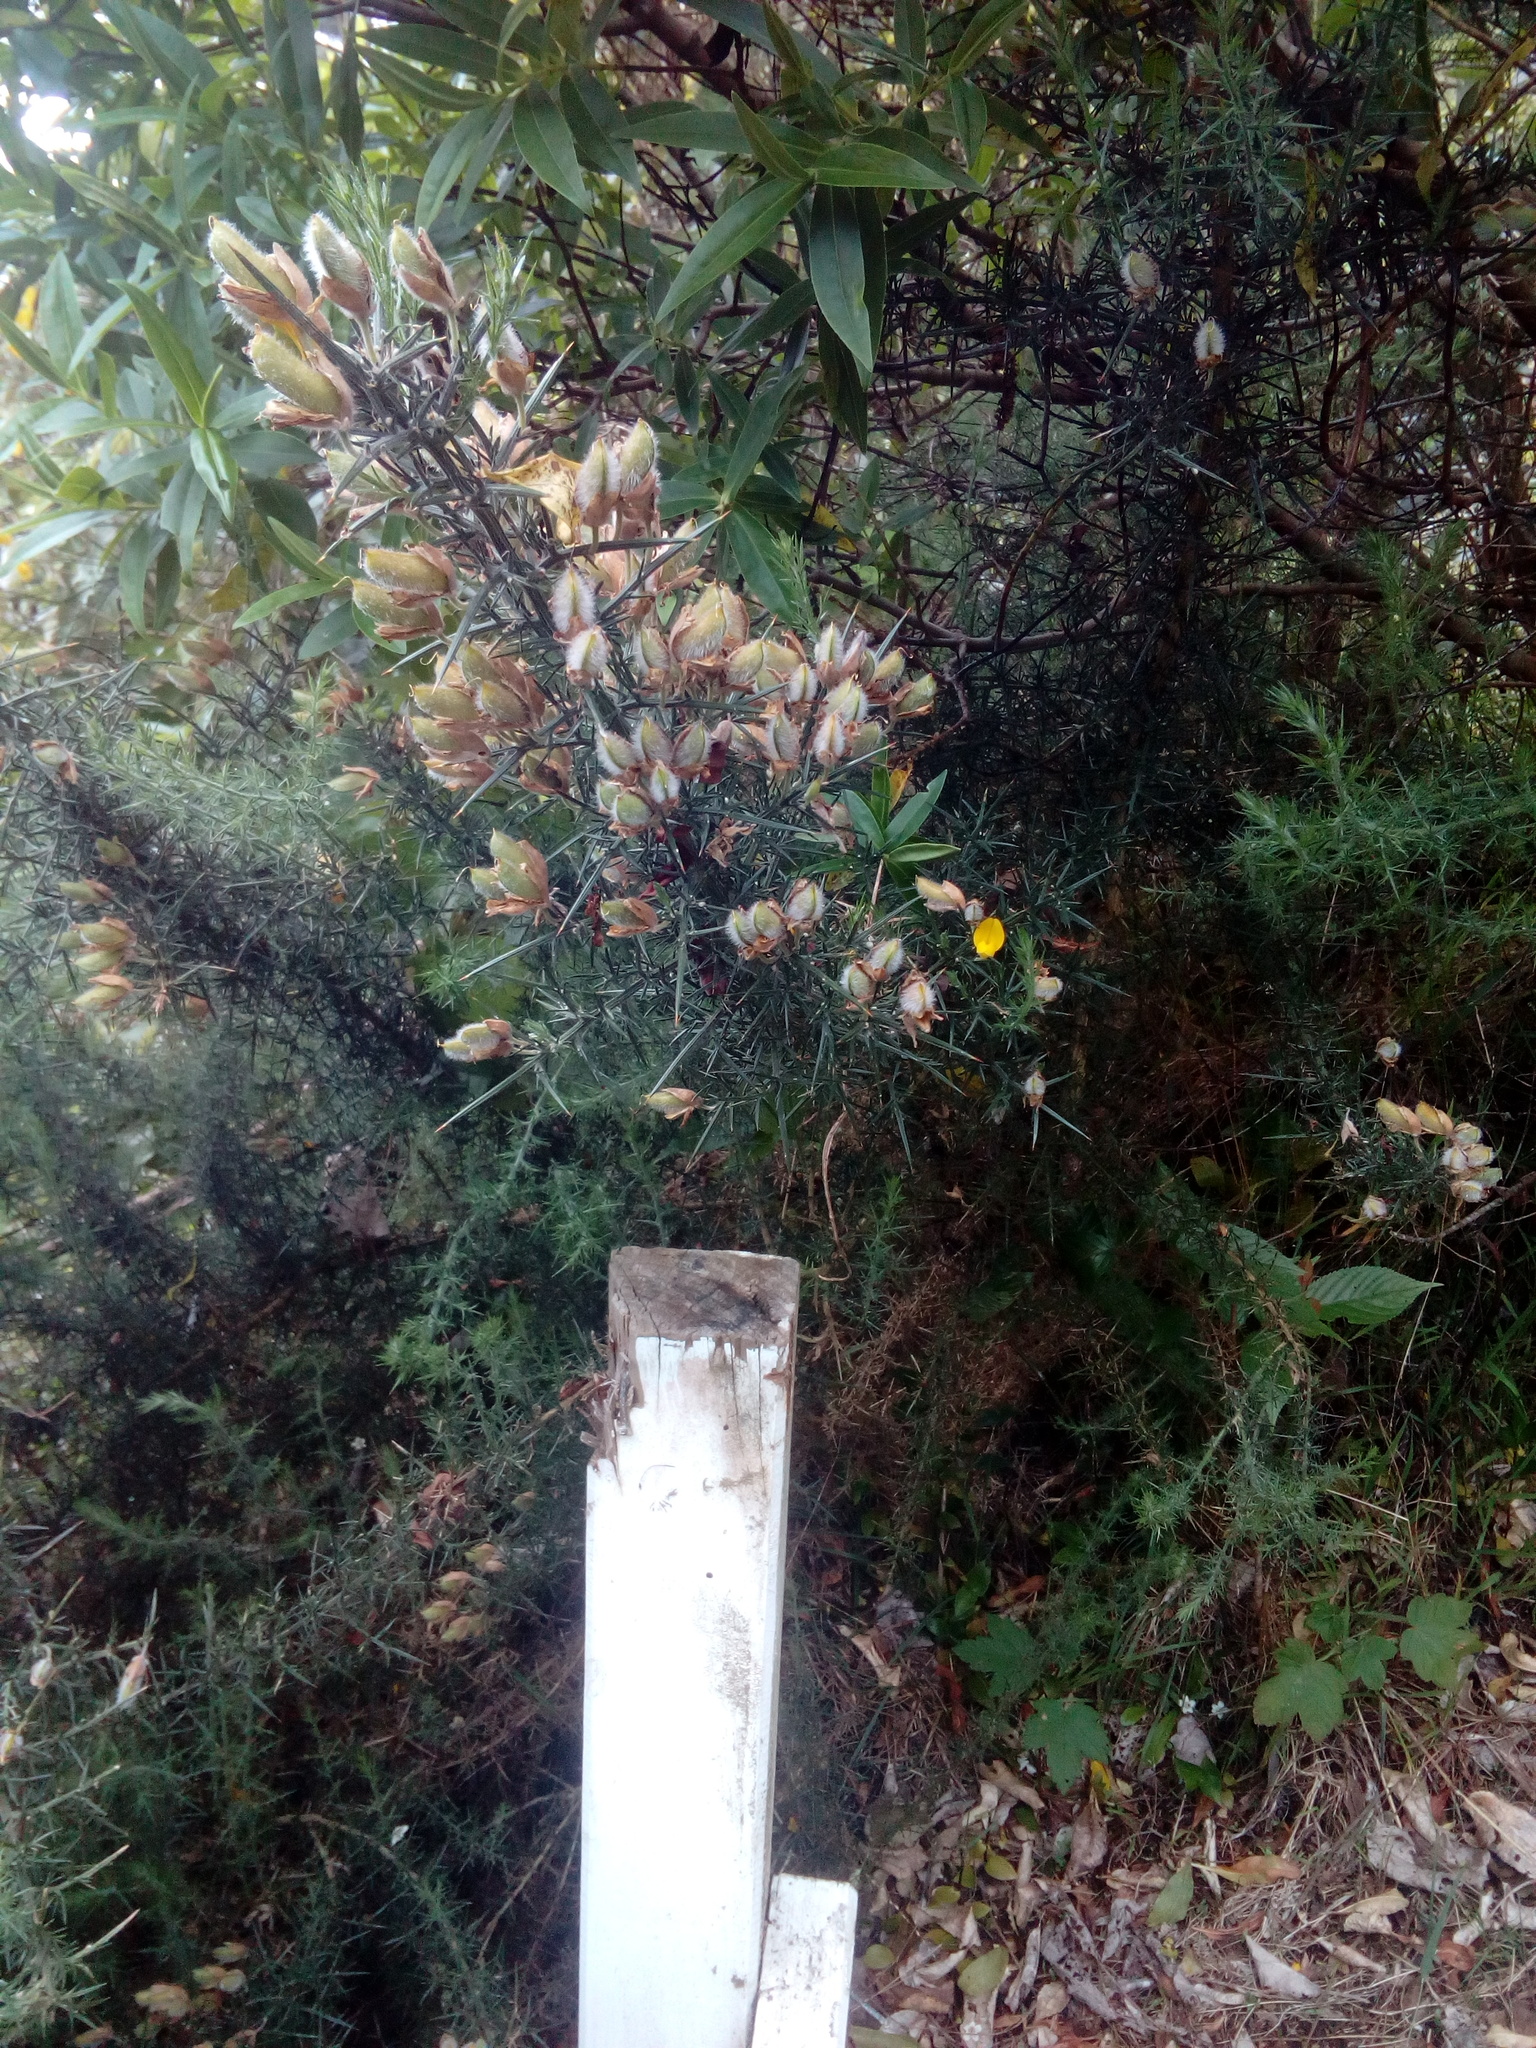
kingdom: Plantae
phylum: Tracheophyta
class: Magnoliopsida
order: Fabales
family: Fabaceae
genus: Ulex
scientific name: Ulex europaeus
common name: Common gorse
